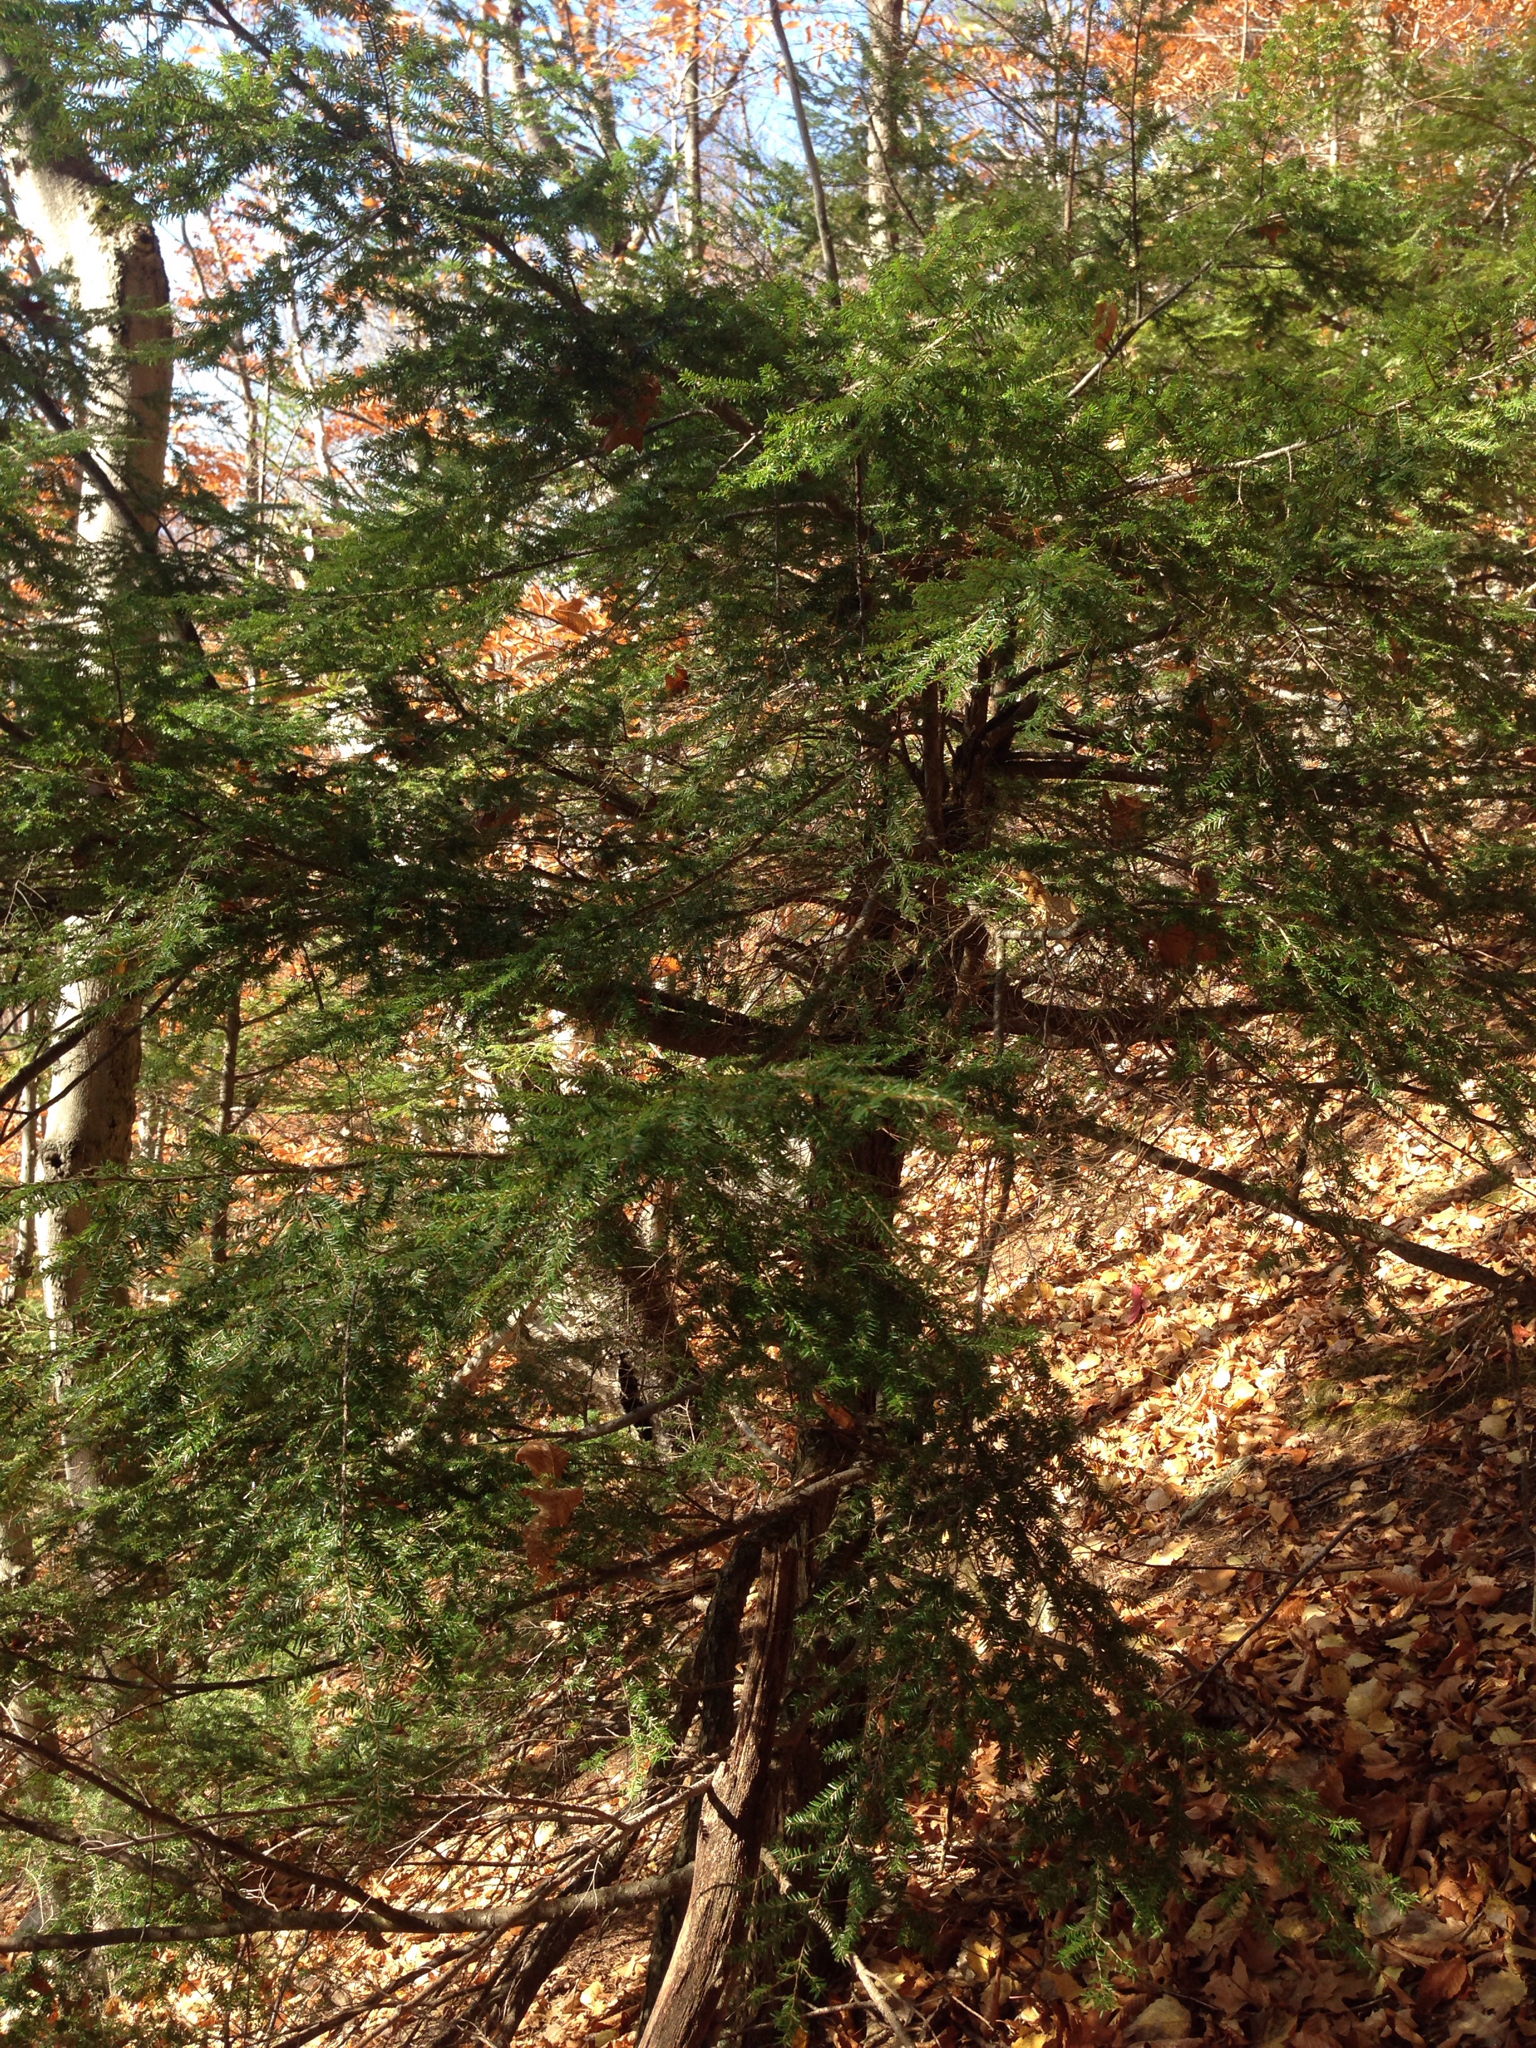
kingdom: Plantae
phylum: Tracheophyta
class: Pinopsida
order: Pinales
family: Pinaceae
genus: Tsuga
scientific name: Tsuga canadensis
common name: Eastern hemlock
